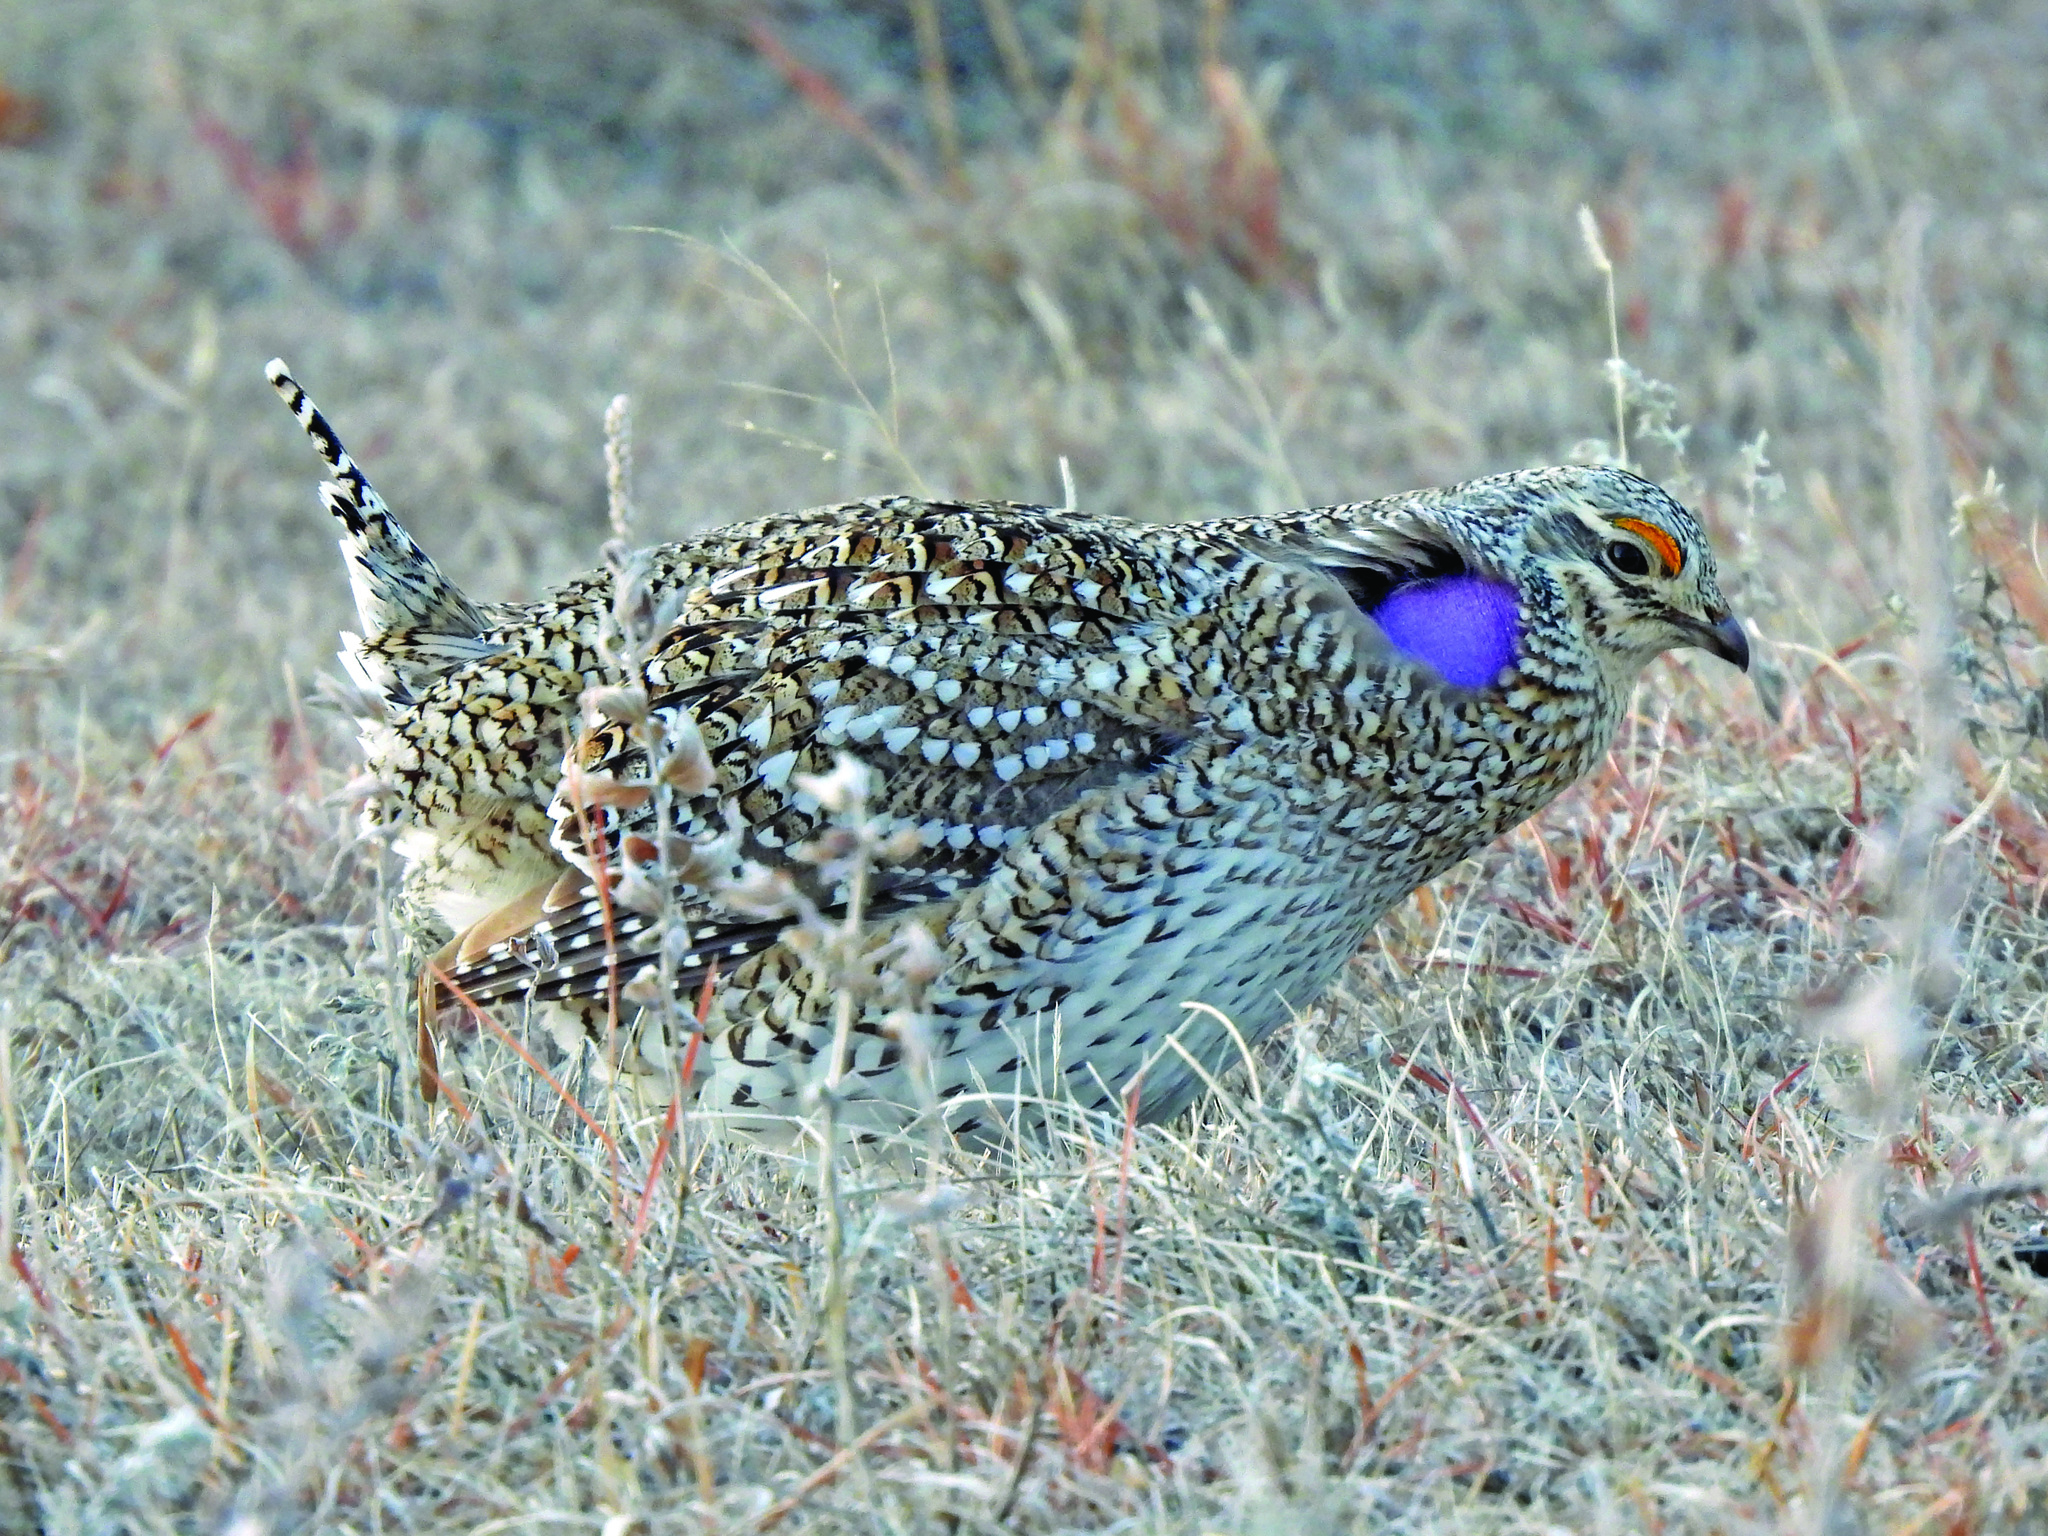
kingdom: Animalia
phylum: Chordata
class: Aves
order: Galliformes
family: Phasianidae
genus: Tympanuchus
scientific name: Tympanuchus phasianellus
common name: Sharp-tailed grouse
